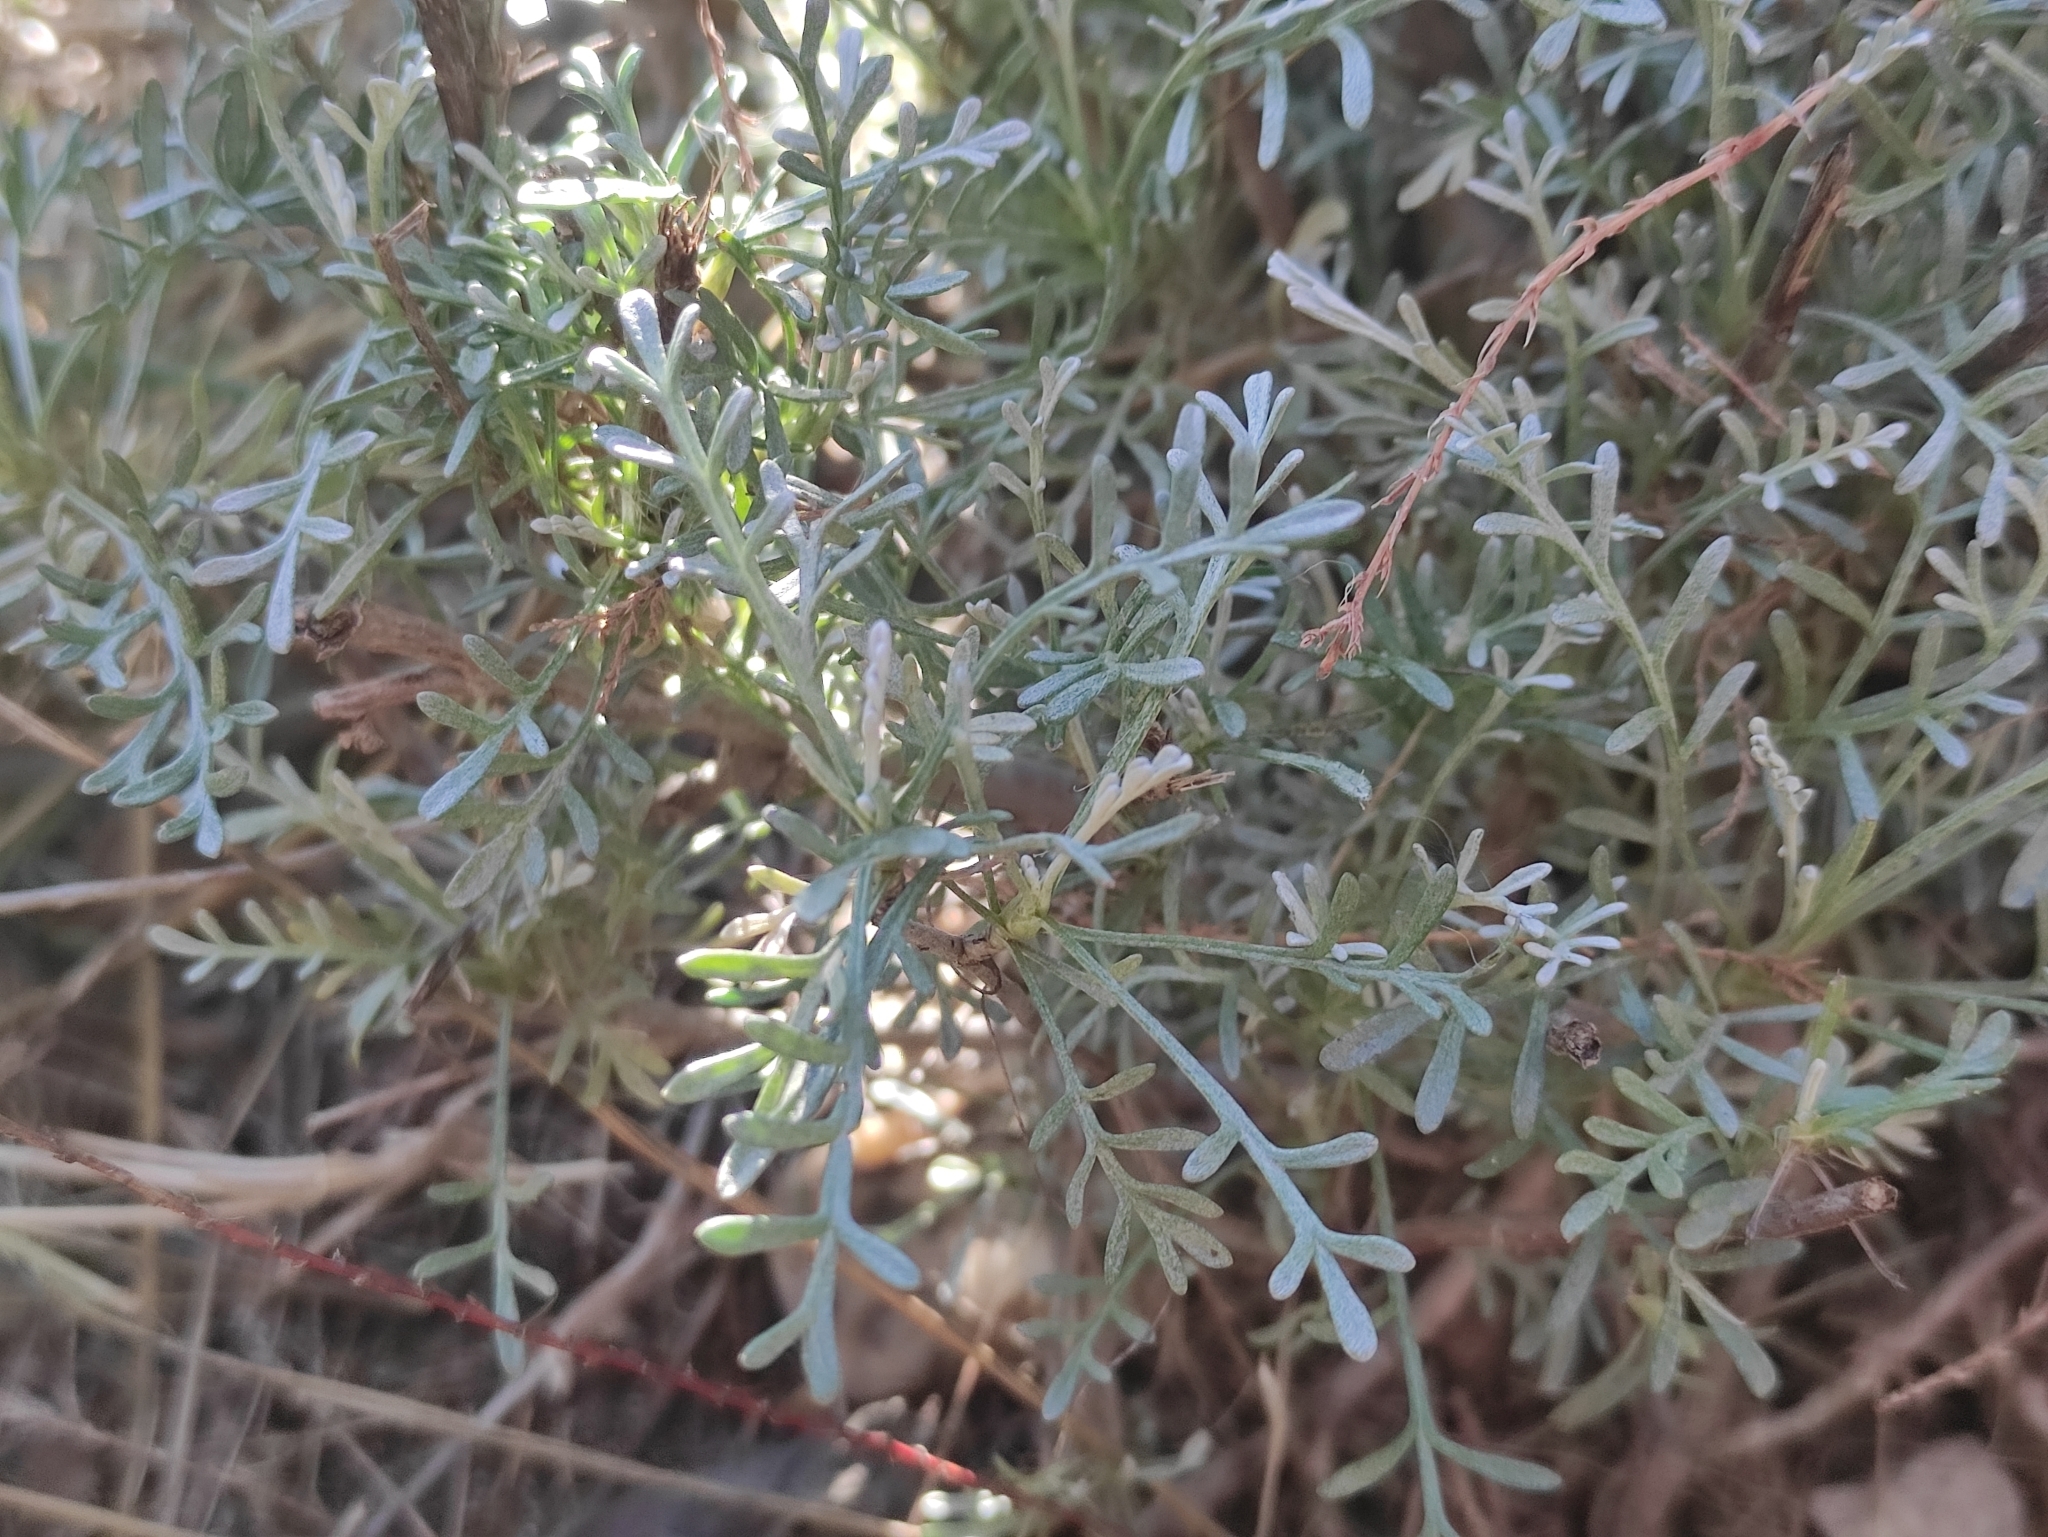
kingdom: Plantae
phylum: Tracheophyta
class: Magnoliopsida
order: Asterales
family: Asteraceae
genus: Artemisia
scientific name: Artemisia caerulescens
